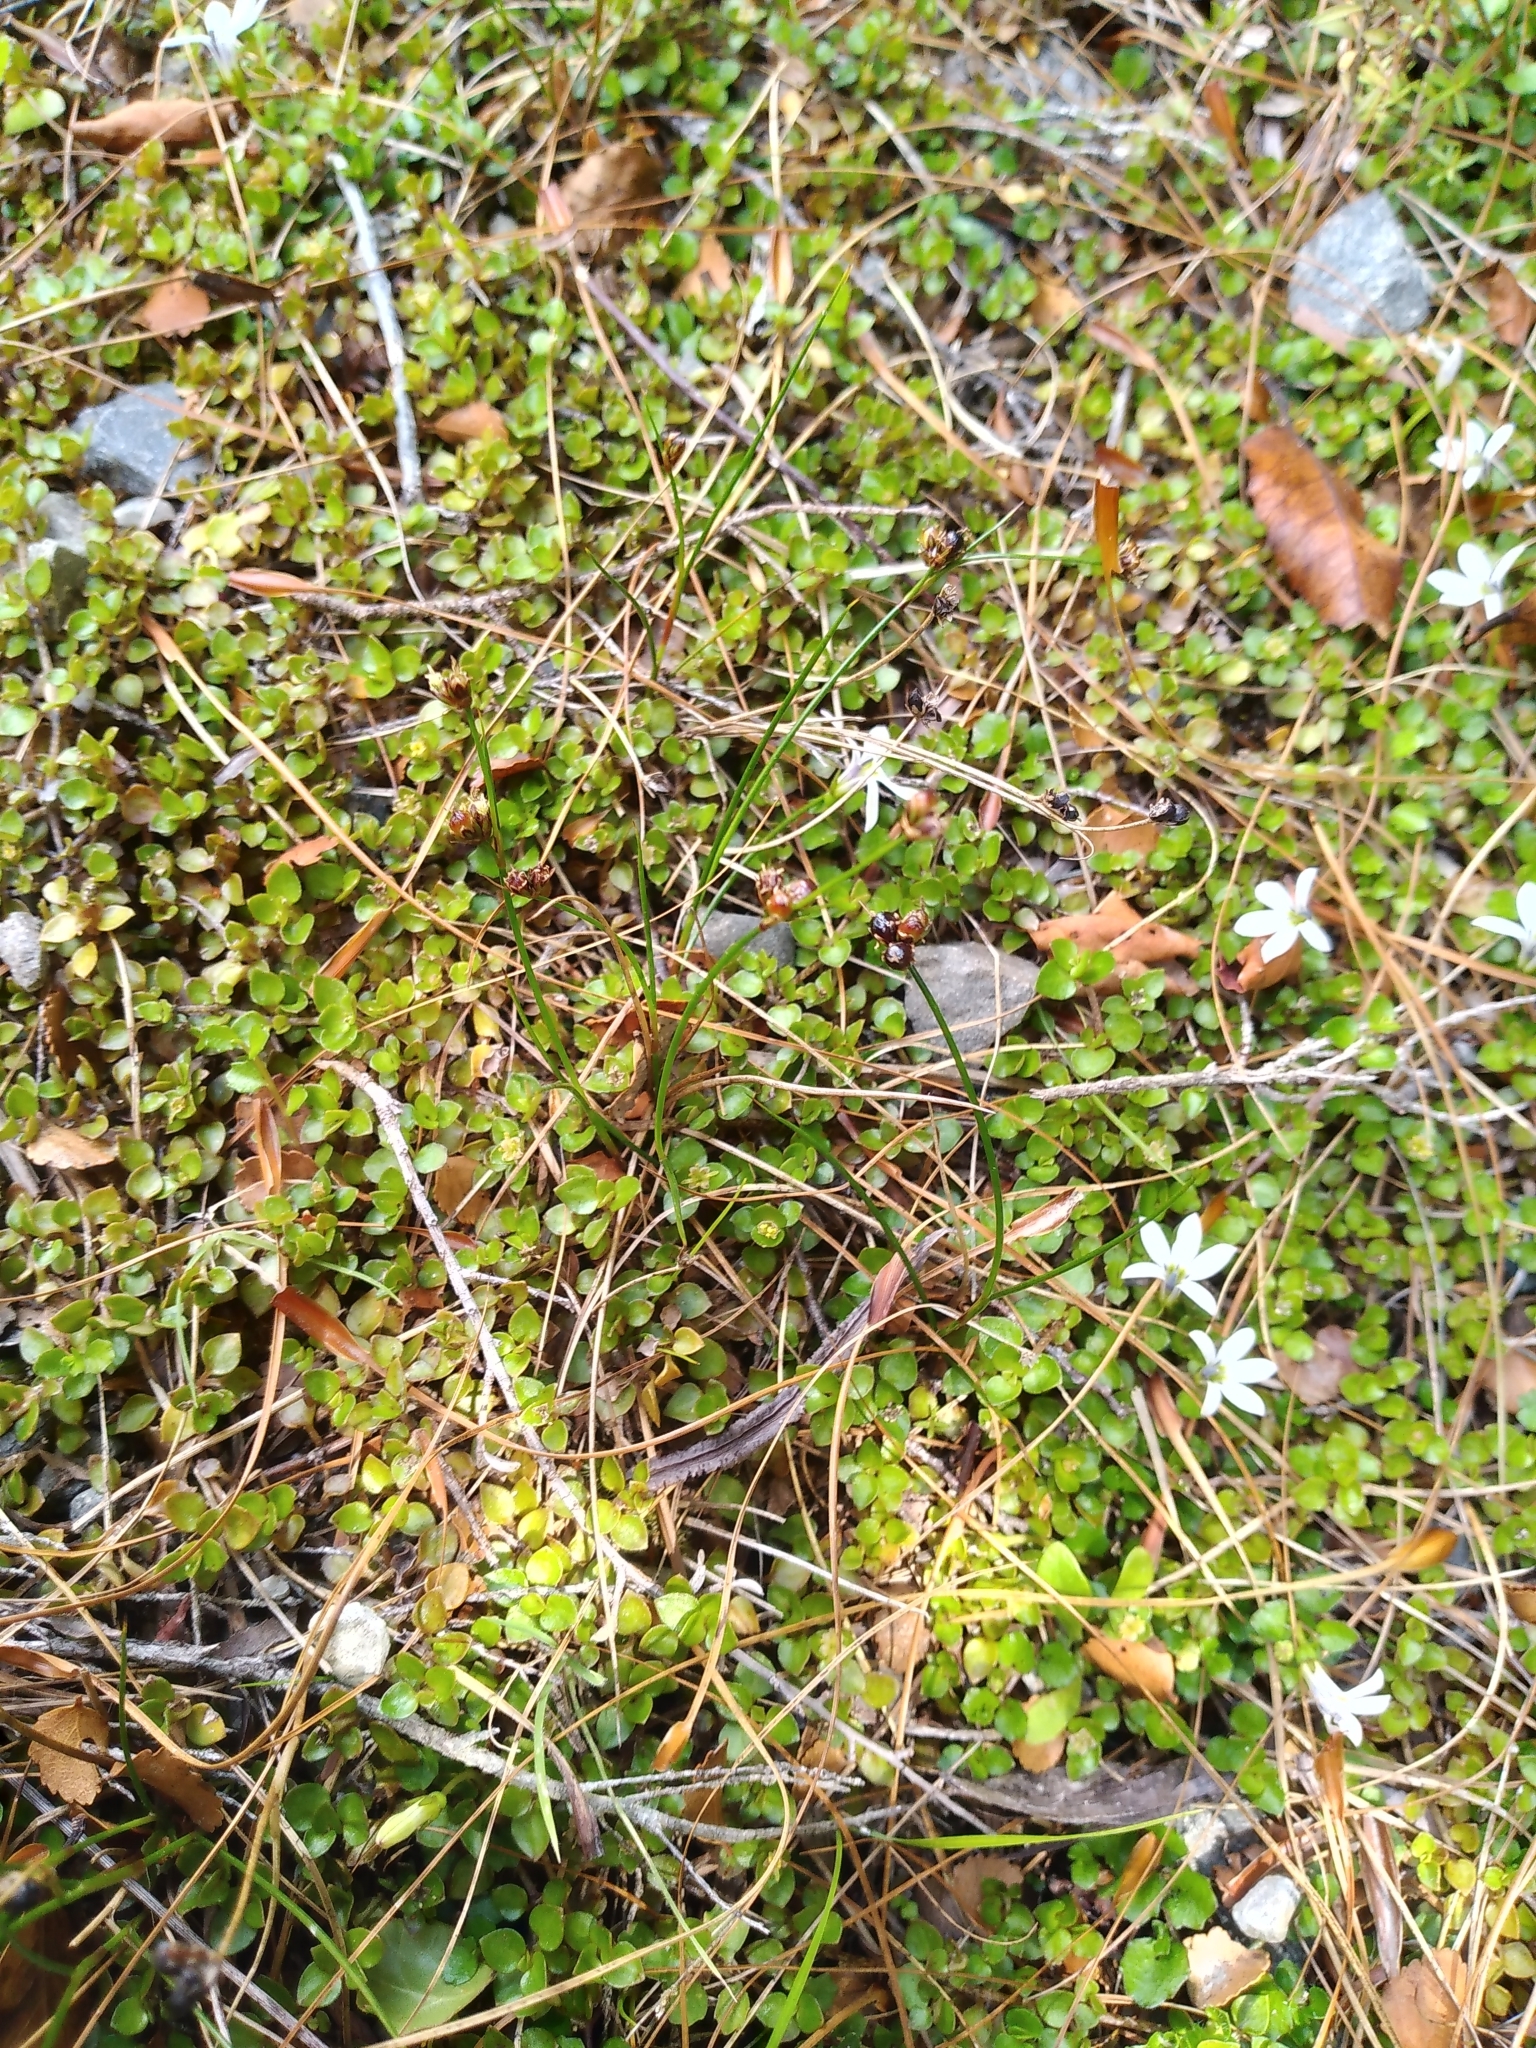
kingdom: Plantae
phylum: Tracheophyta
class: Liliopsida
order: Poales
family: Juncaceae
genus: Juncus
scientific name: Juncus novae-zelandiae
